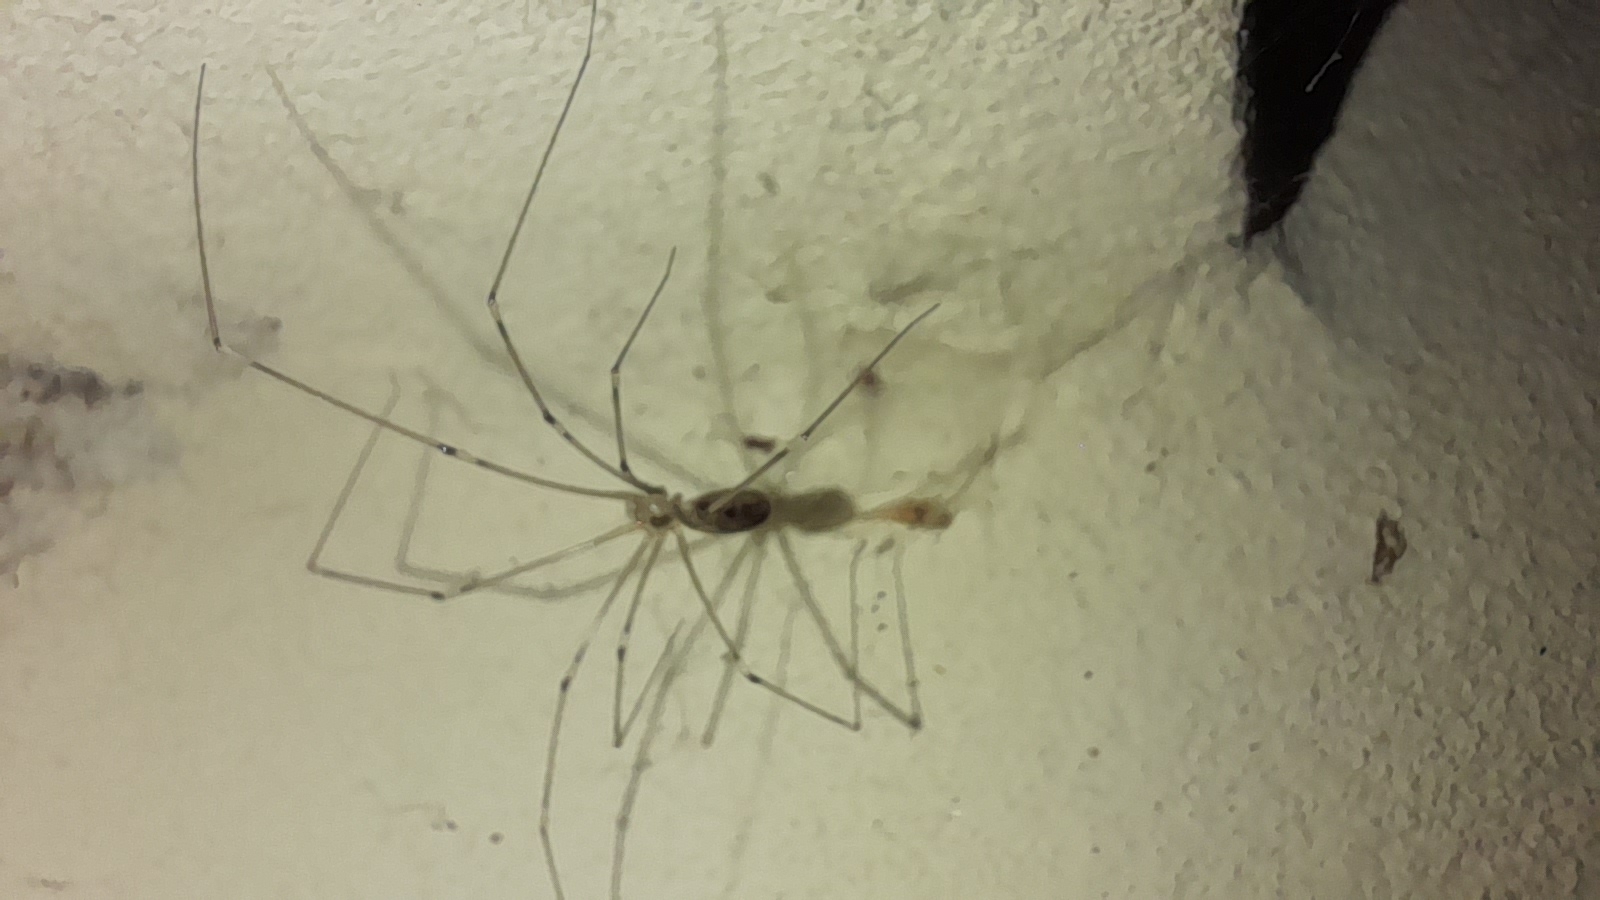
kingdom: Animalia
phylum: Arthropoda
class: Arachnida
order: Araneae
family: Pholcidae
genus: Pholcus
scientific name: Pholcus phalangioides
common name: Longbodied cellar spider
